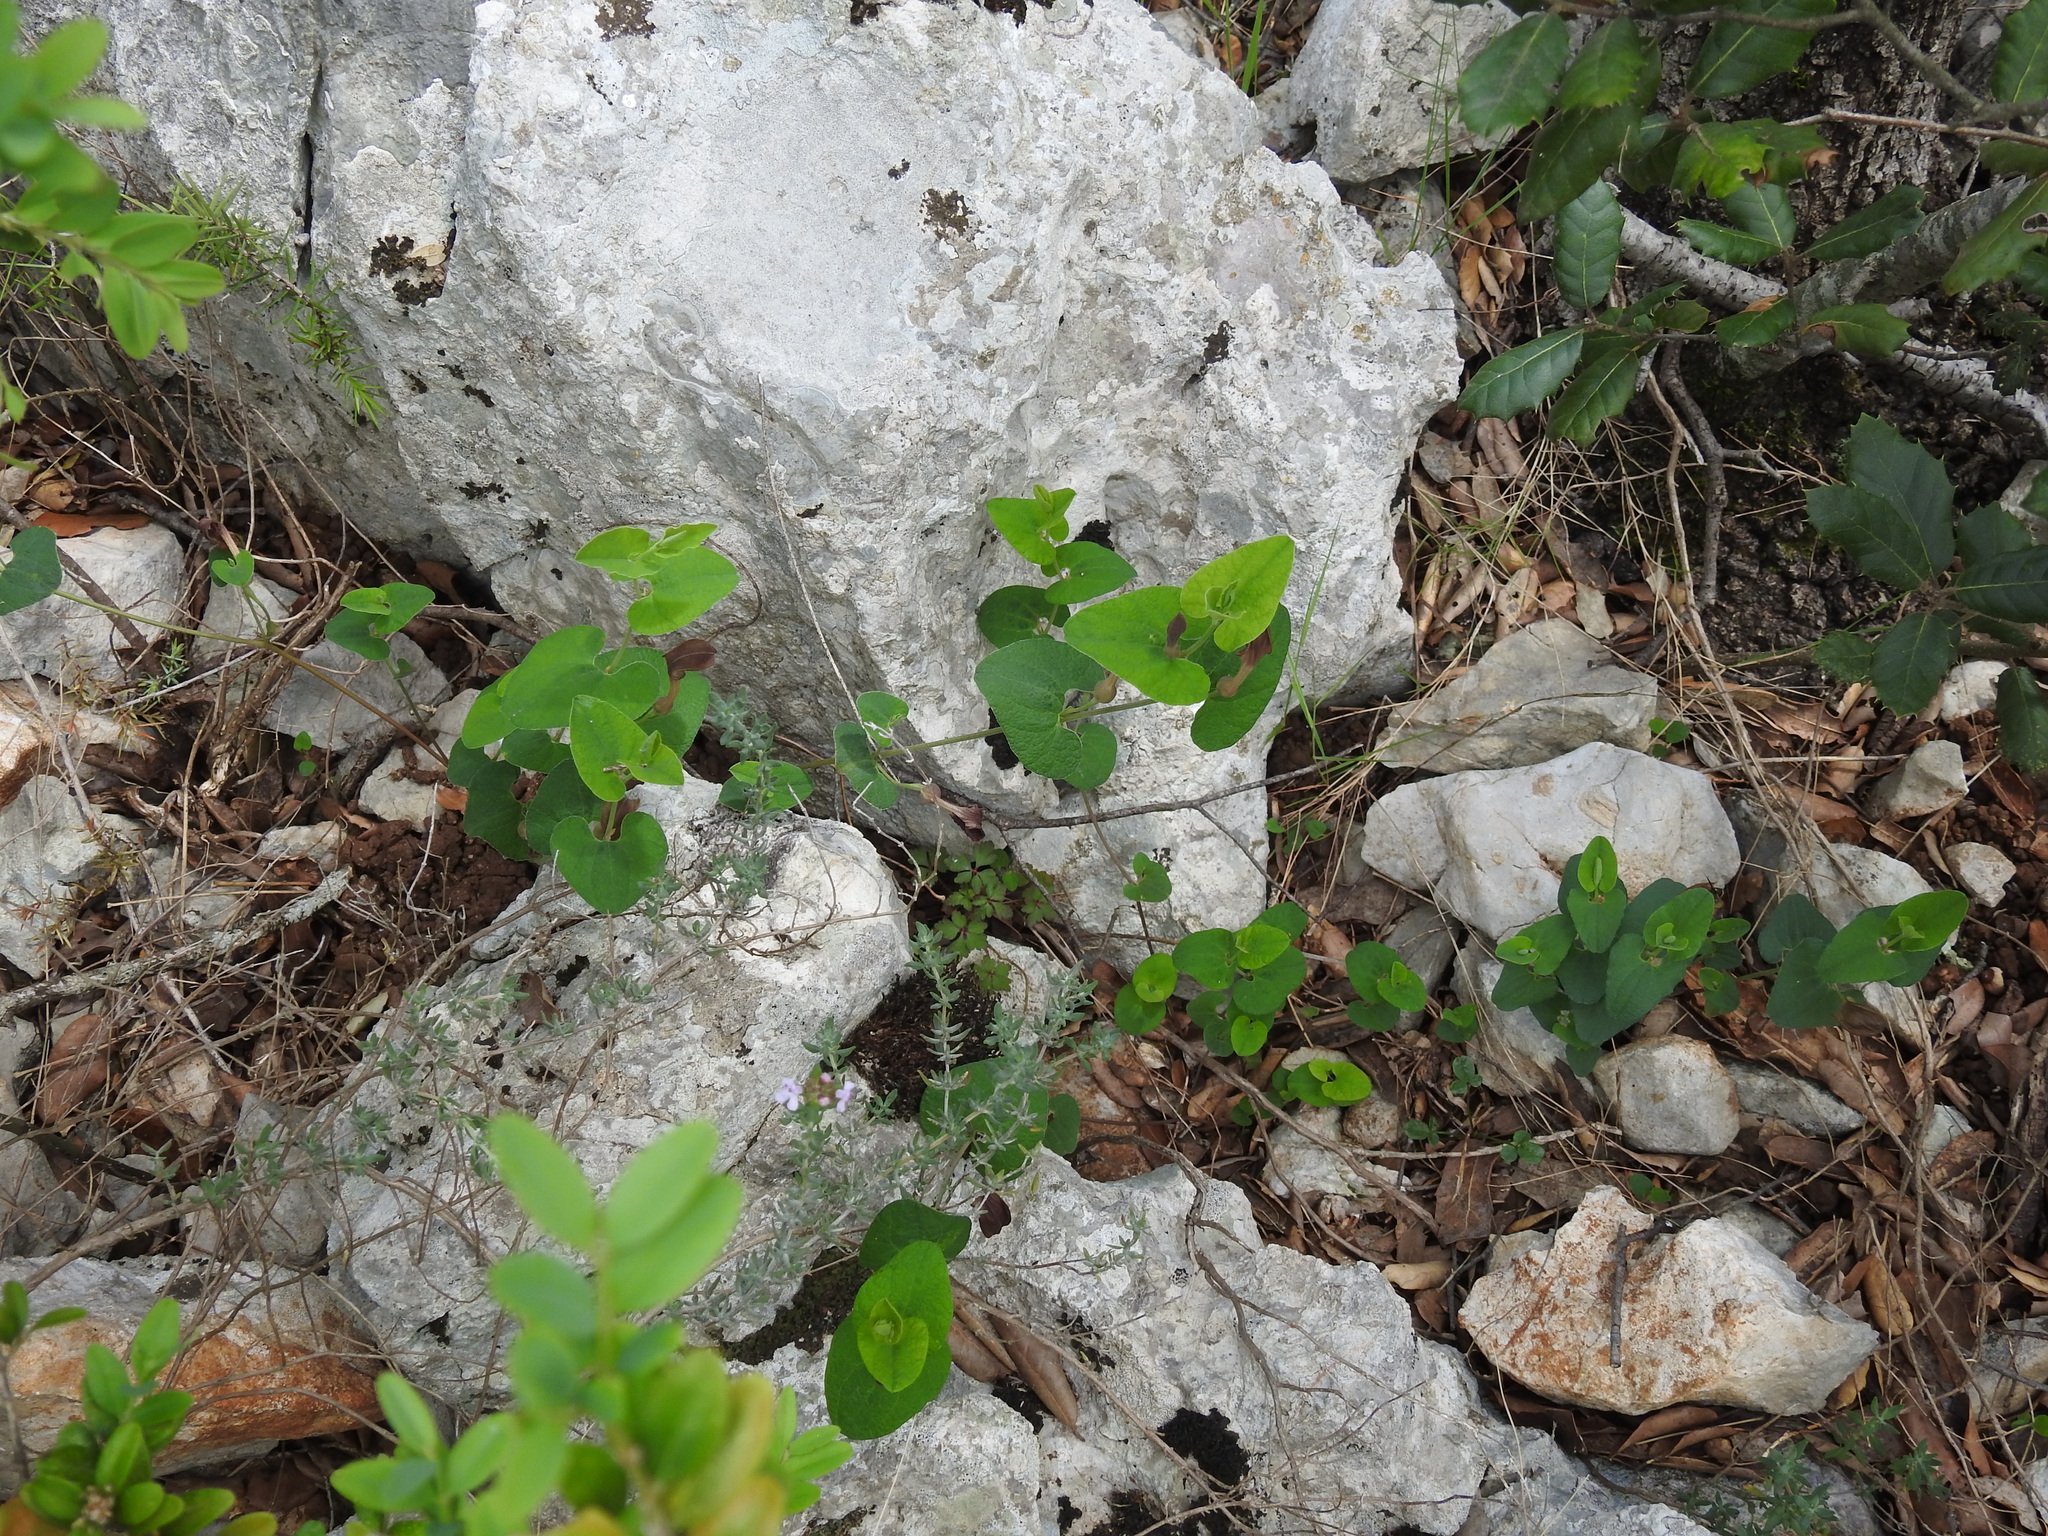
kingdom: Plantae
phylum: Tracheophyta
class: Magnoliopsida
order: Piperales
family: Aristolochiaceae
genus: Aristolochia
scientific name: Aristolochia pistolochia
